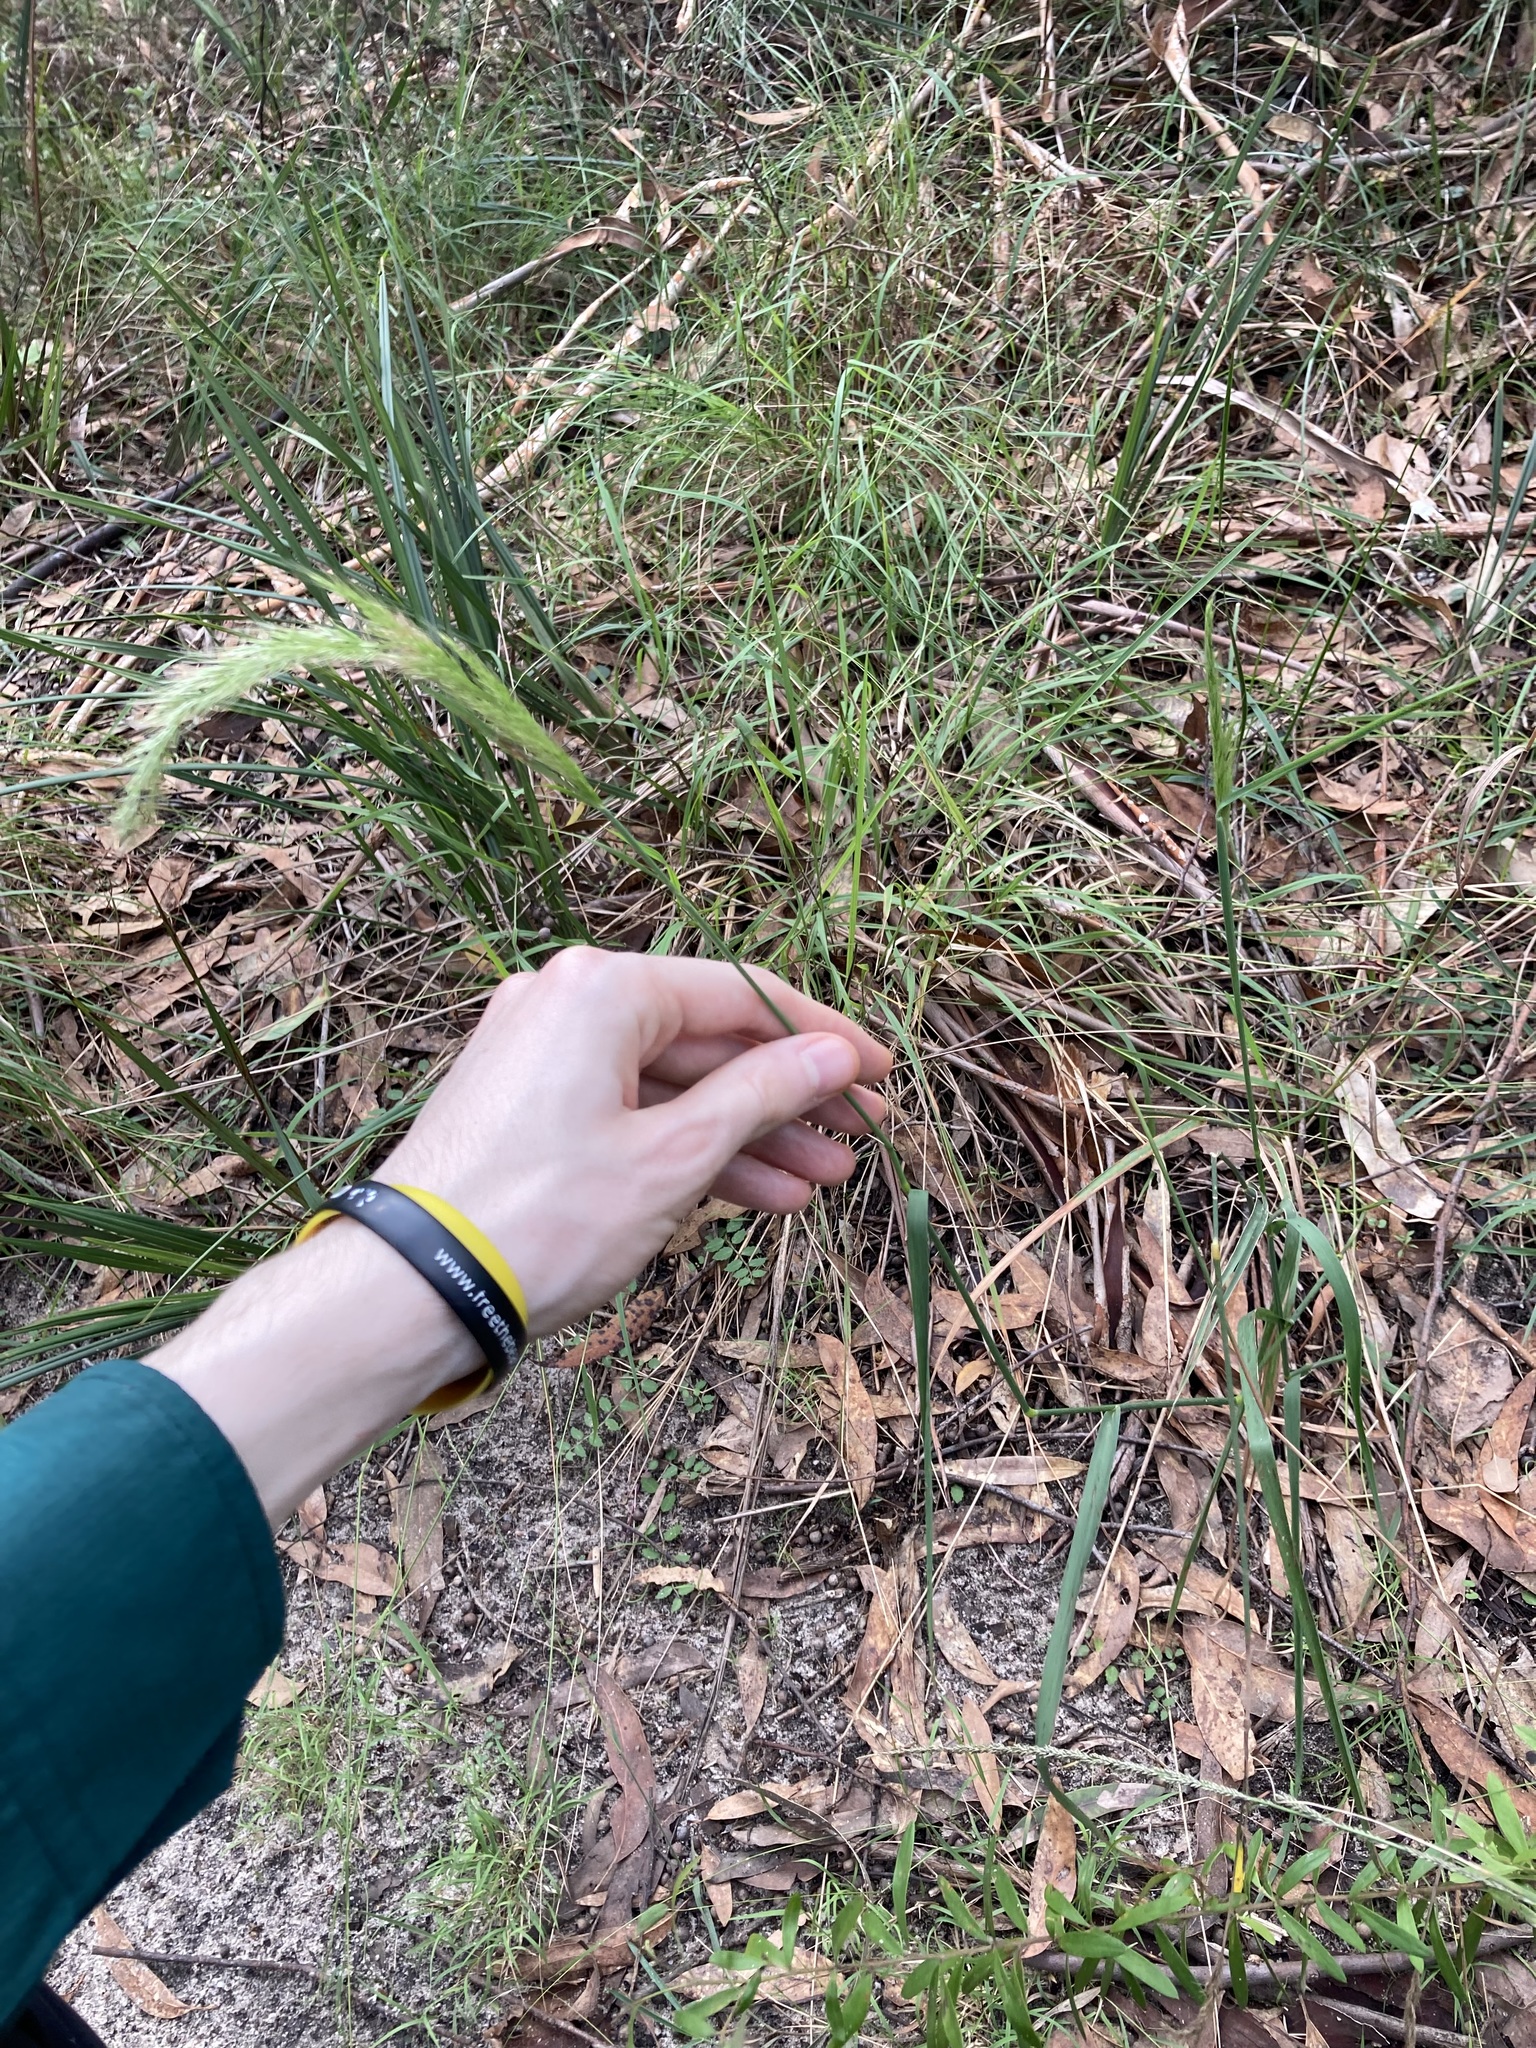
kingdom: Plantae
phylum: Tracheophyta
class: Liliopsida
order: Poales
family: Poaceae
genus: Dichelachne
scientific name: Dichelachne micrantha
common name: Plumegrass
